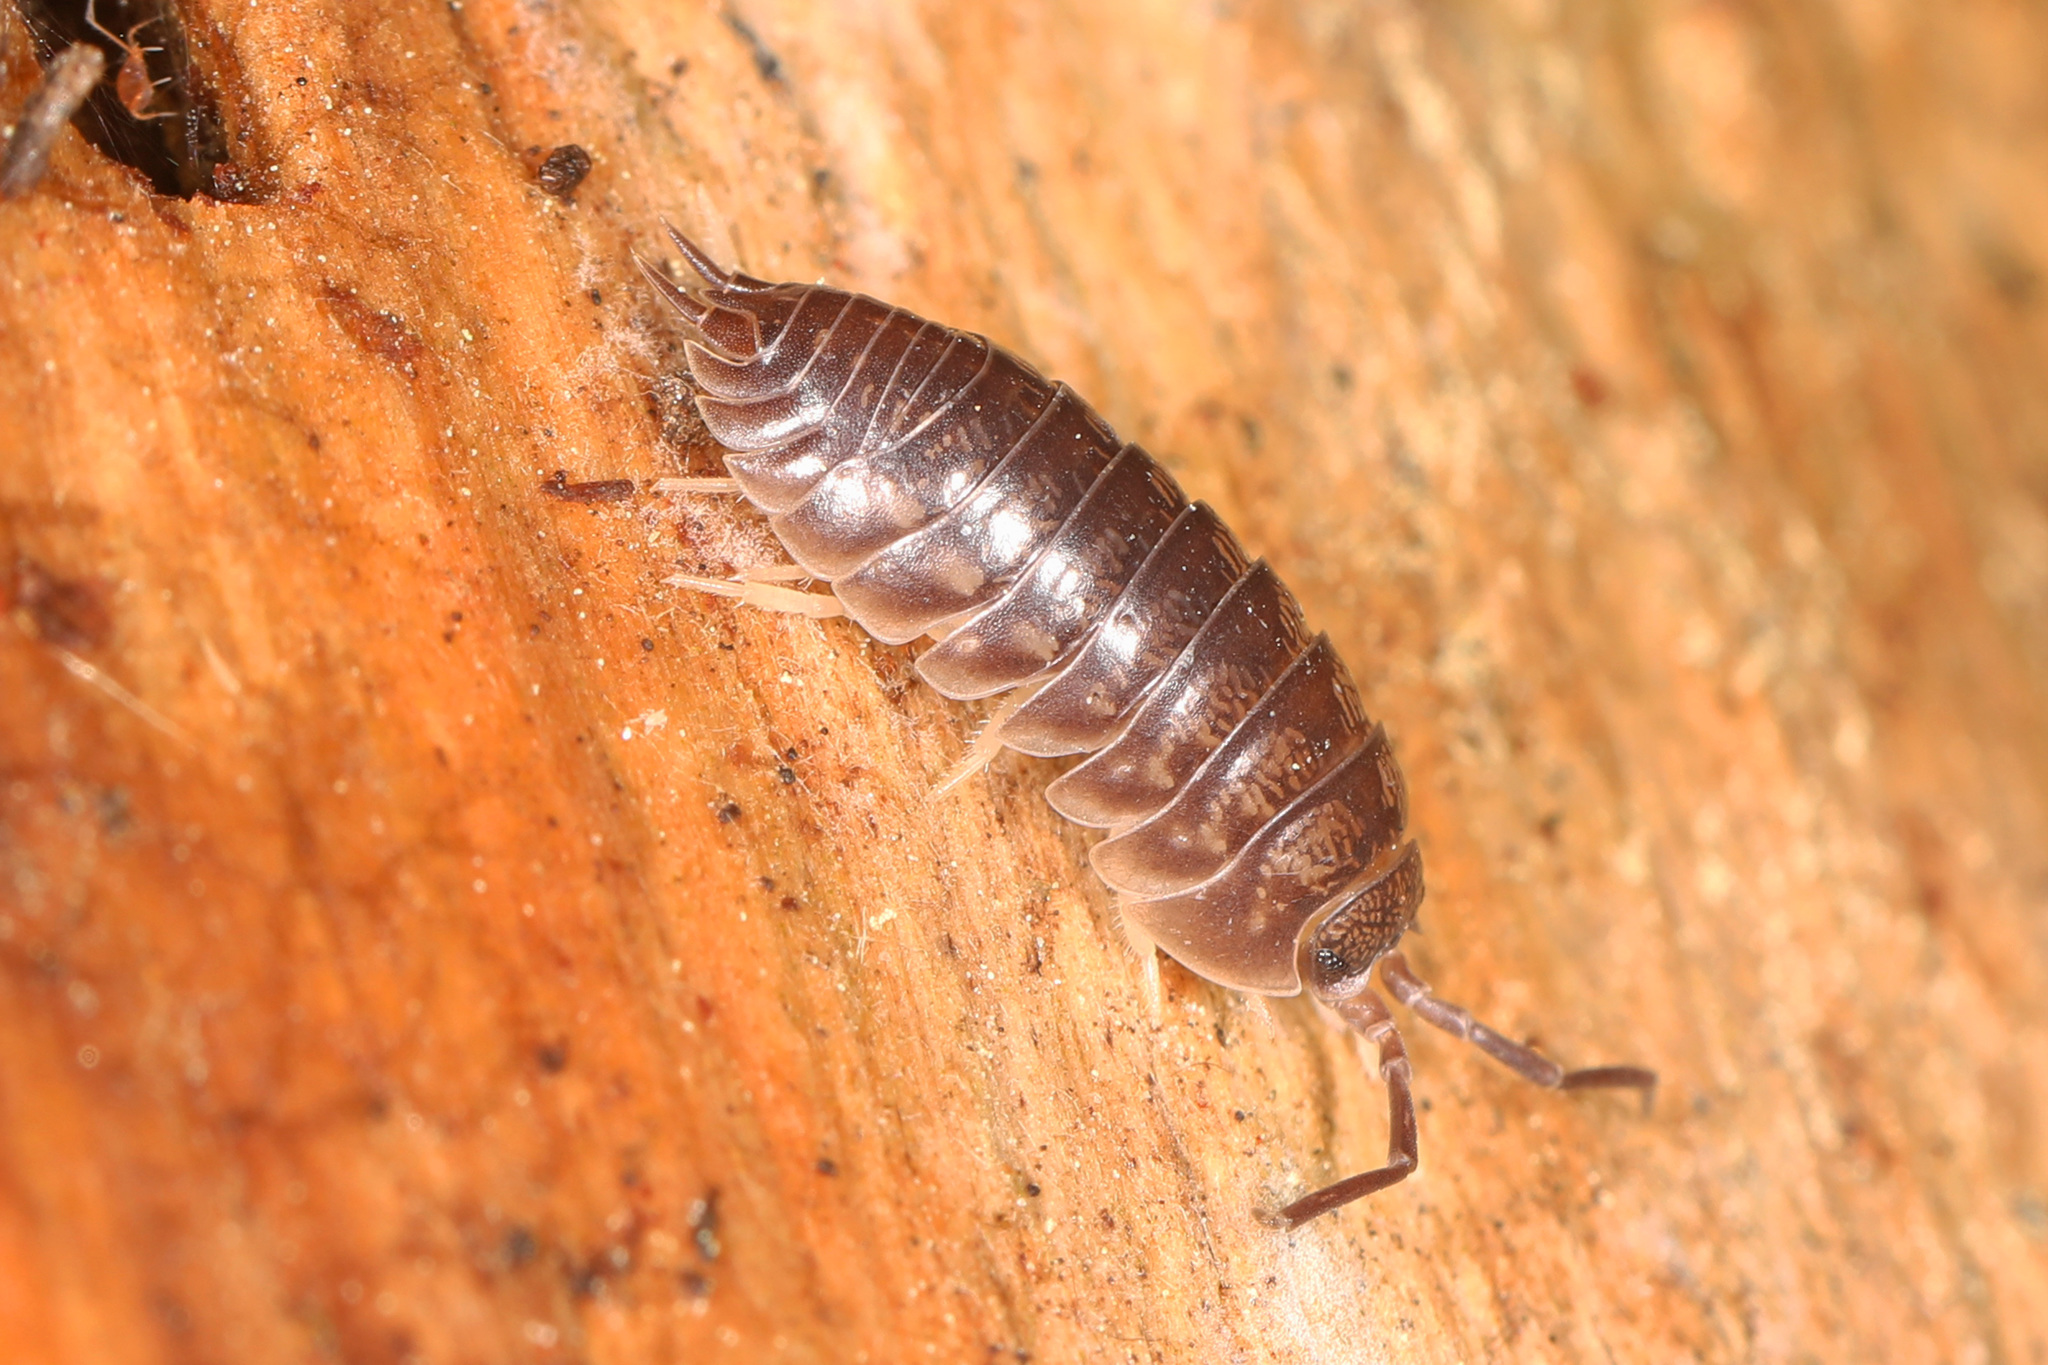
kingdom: Animalia
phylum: Arthropoda
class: Malacostraca
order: Isopoda
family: Cylisticidae
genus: Cylisticus
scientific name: Cylisticus convexus
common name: Curly woodlouse
